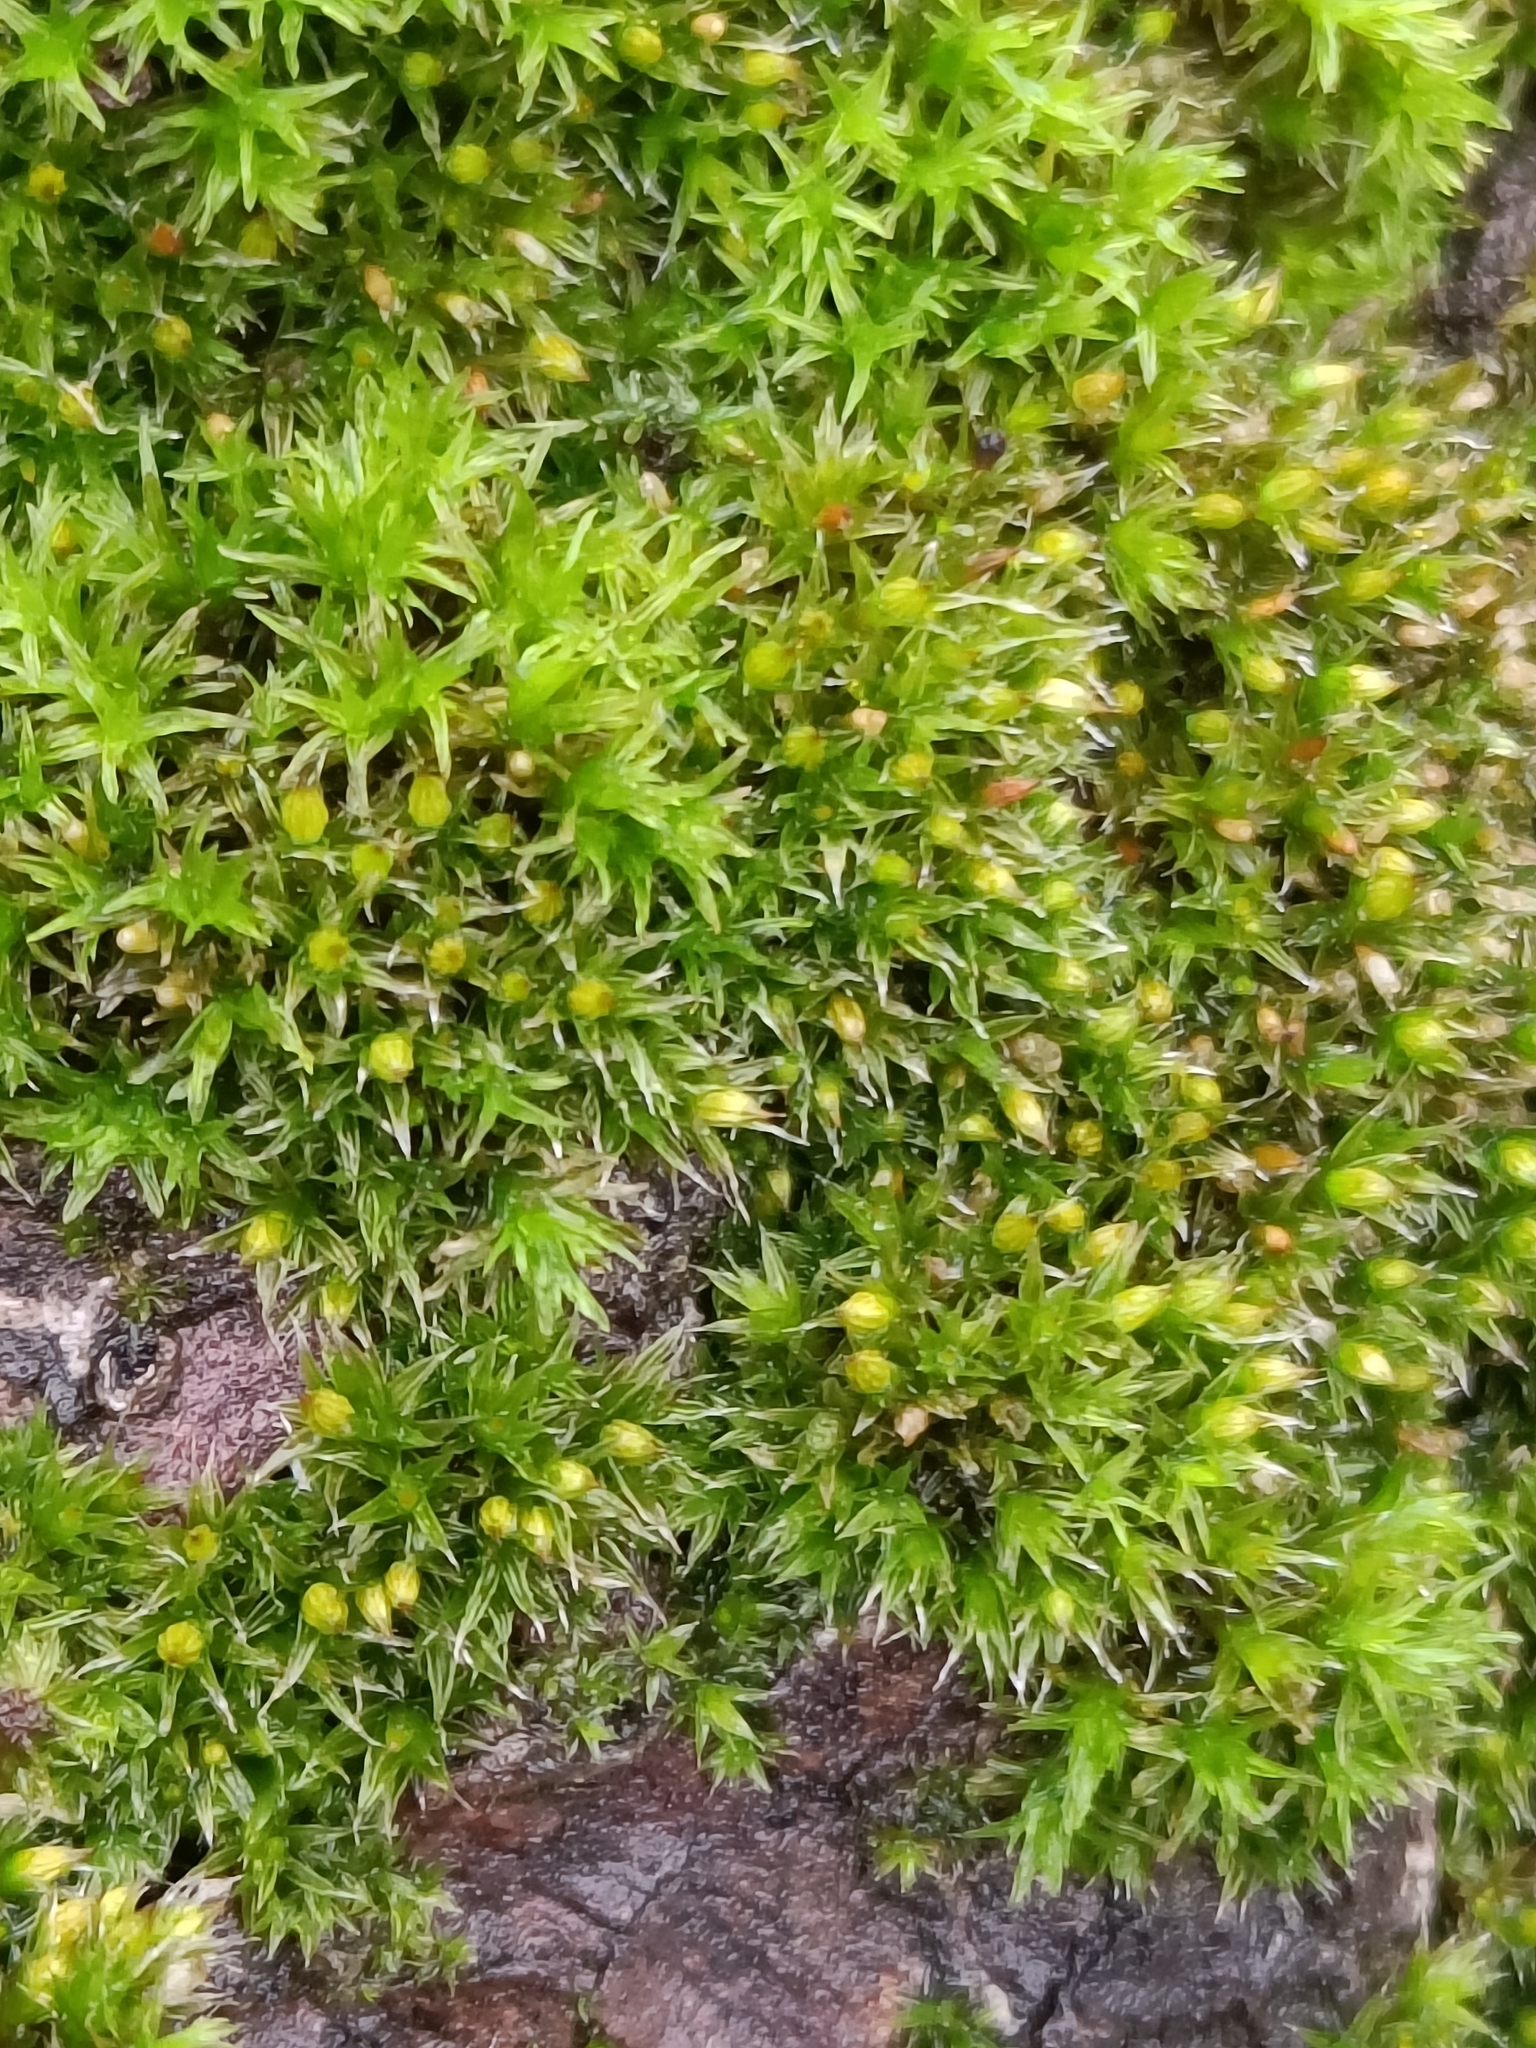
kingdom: Plantae
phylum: Bryophyta
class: Bryopsida
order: Orthotrichales
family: Orthotrichaceae
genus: Orthotrichum
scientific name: Orthotrichum diaphanum
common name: White-tipped bristle-moss
